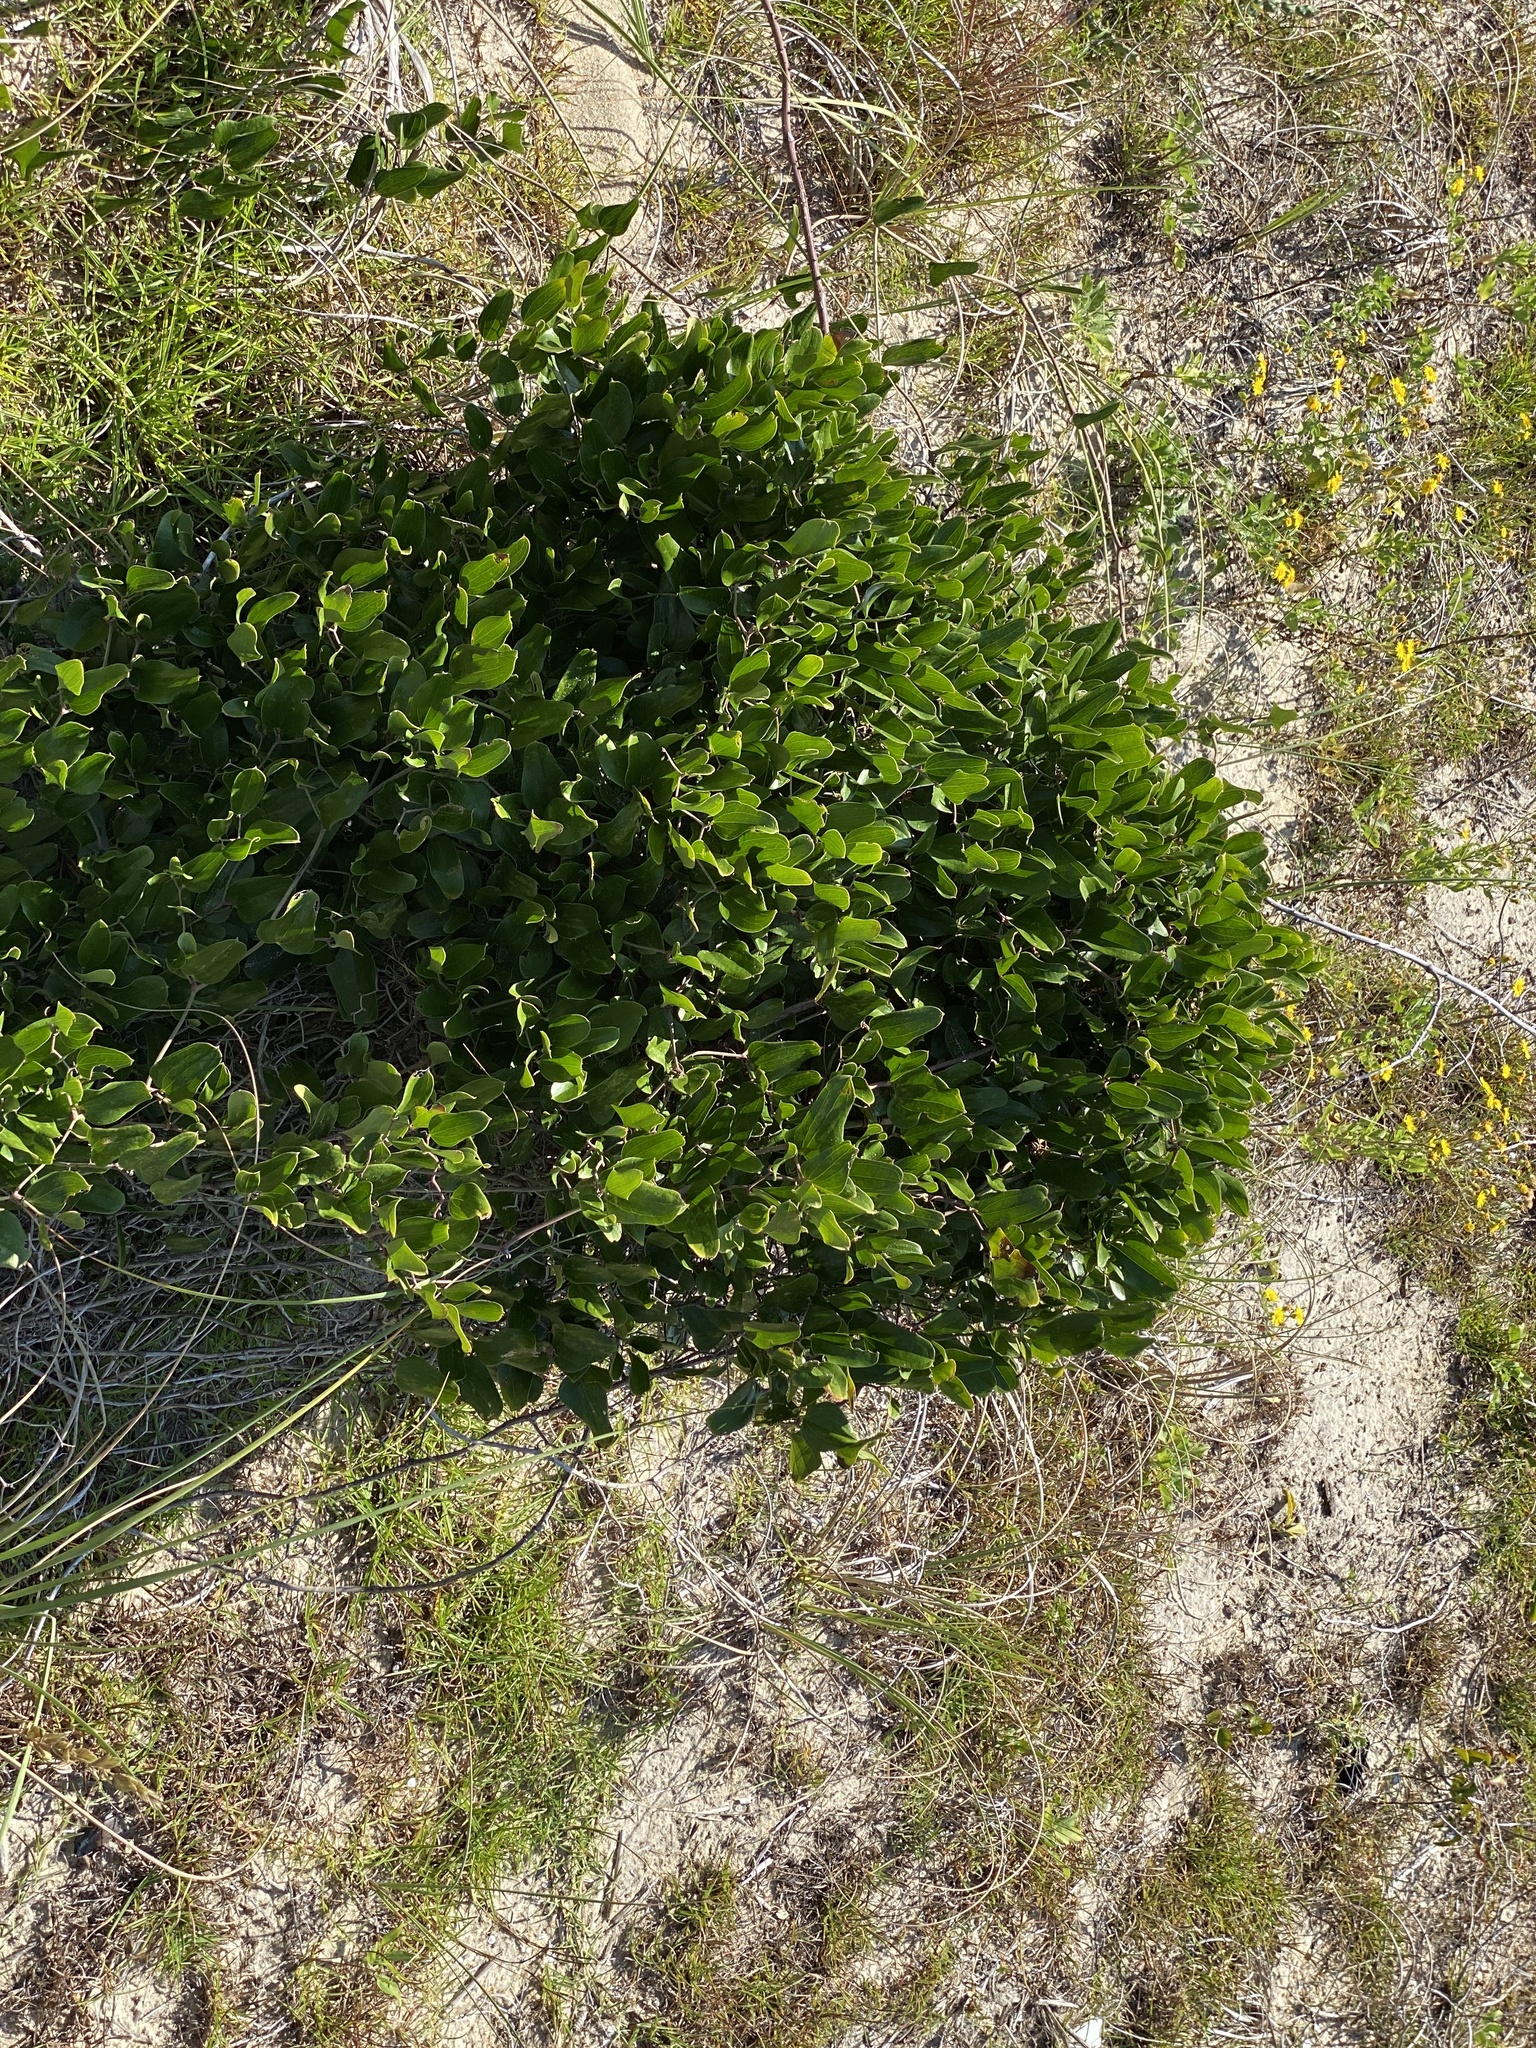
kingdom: Plantae
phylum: Tracheophyta
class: Liliopsida
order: Liliales
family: Smilacaceae
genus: Smilax
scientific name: Smilax auriculata
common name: Wild bamboo
